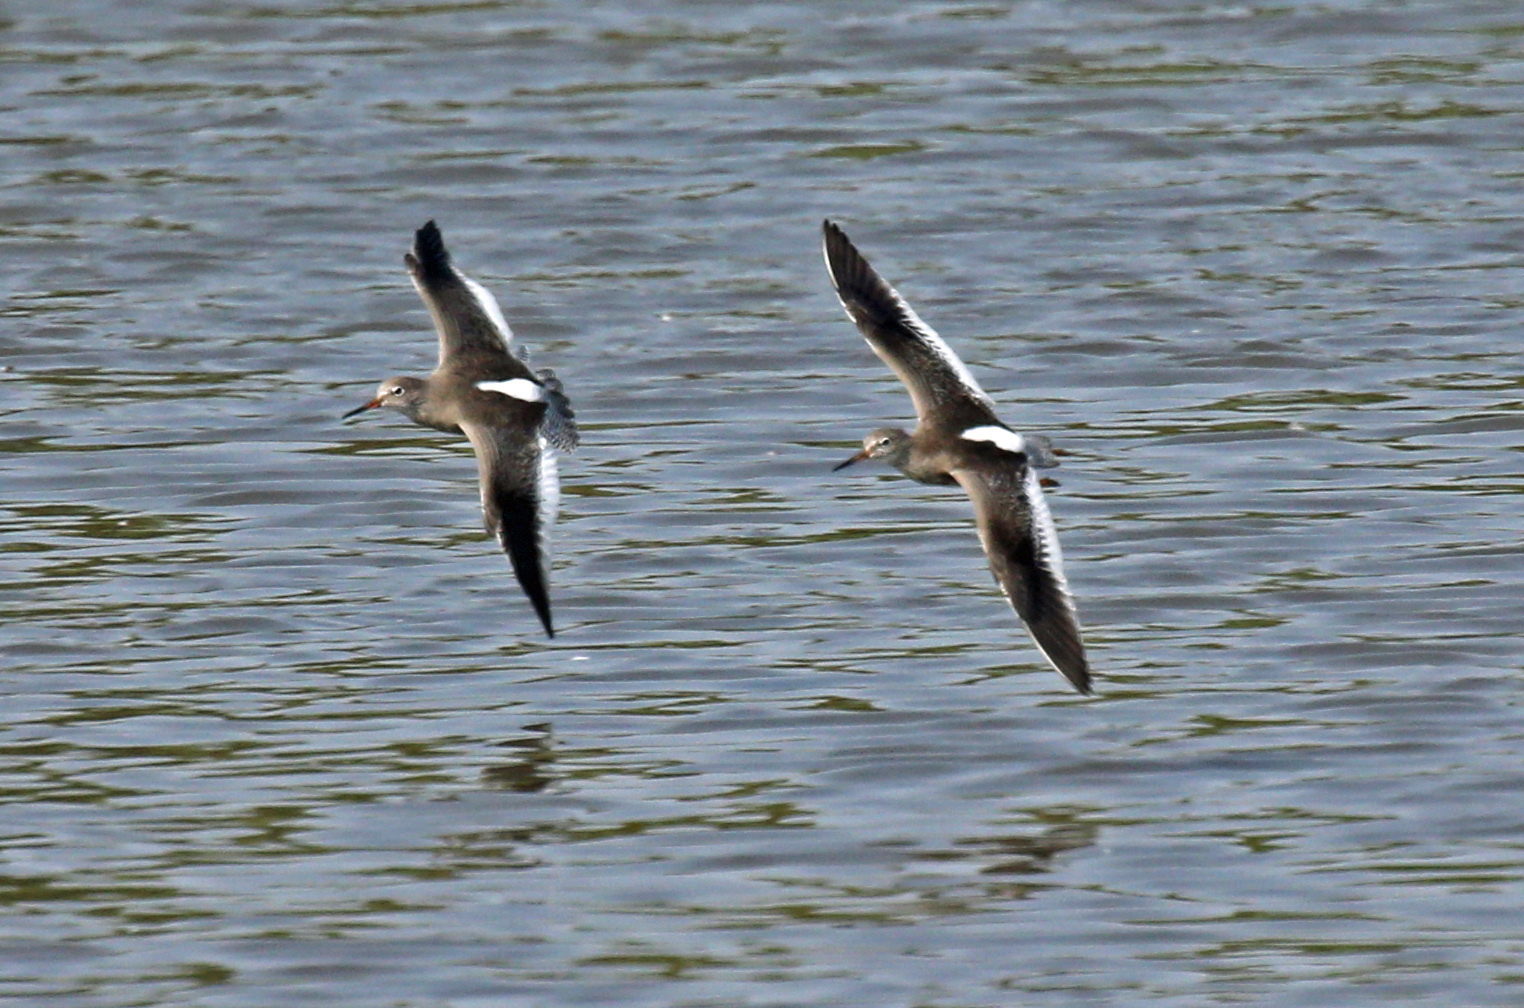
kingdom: Animalia
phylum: Chordata
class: Aves
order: Charadriiformes
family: Scolopacidae
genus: Tringa
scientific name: Tringa totanus
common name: Common redshank
